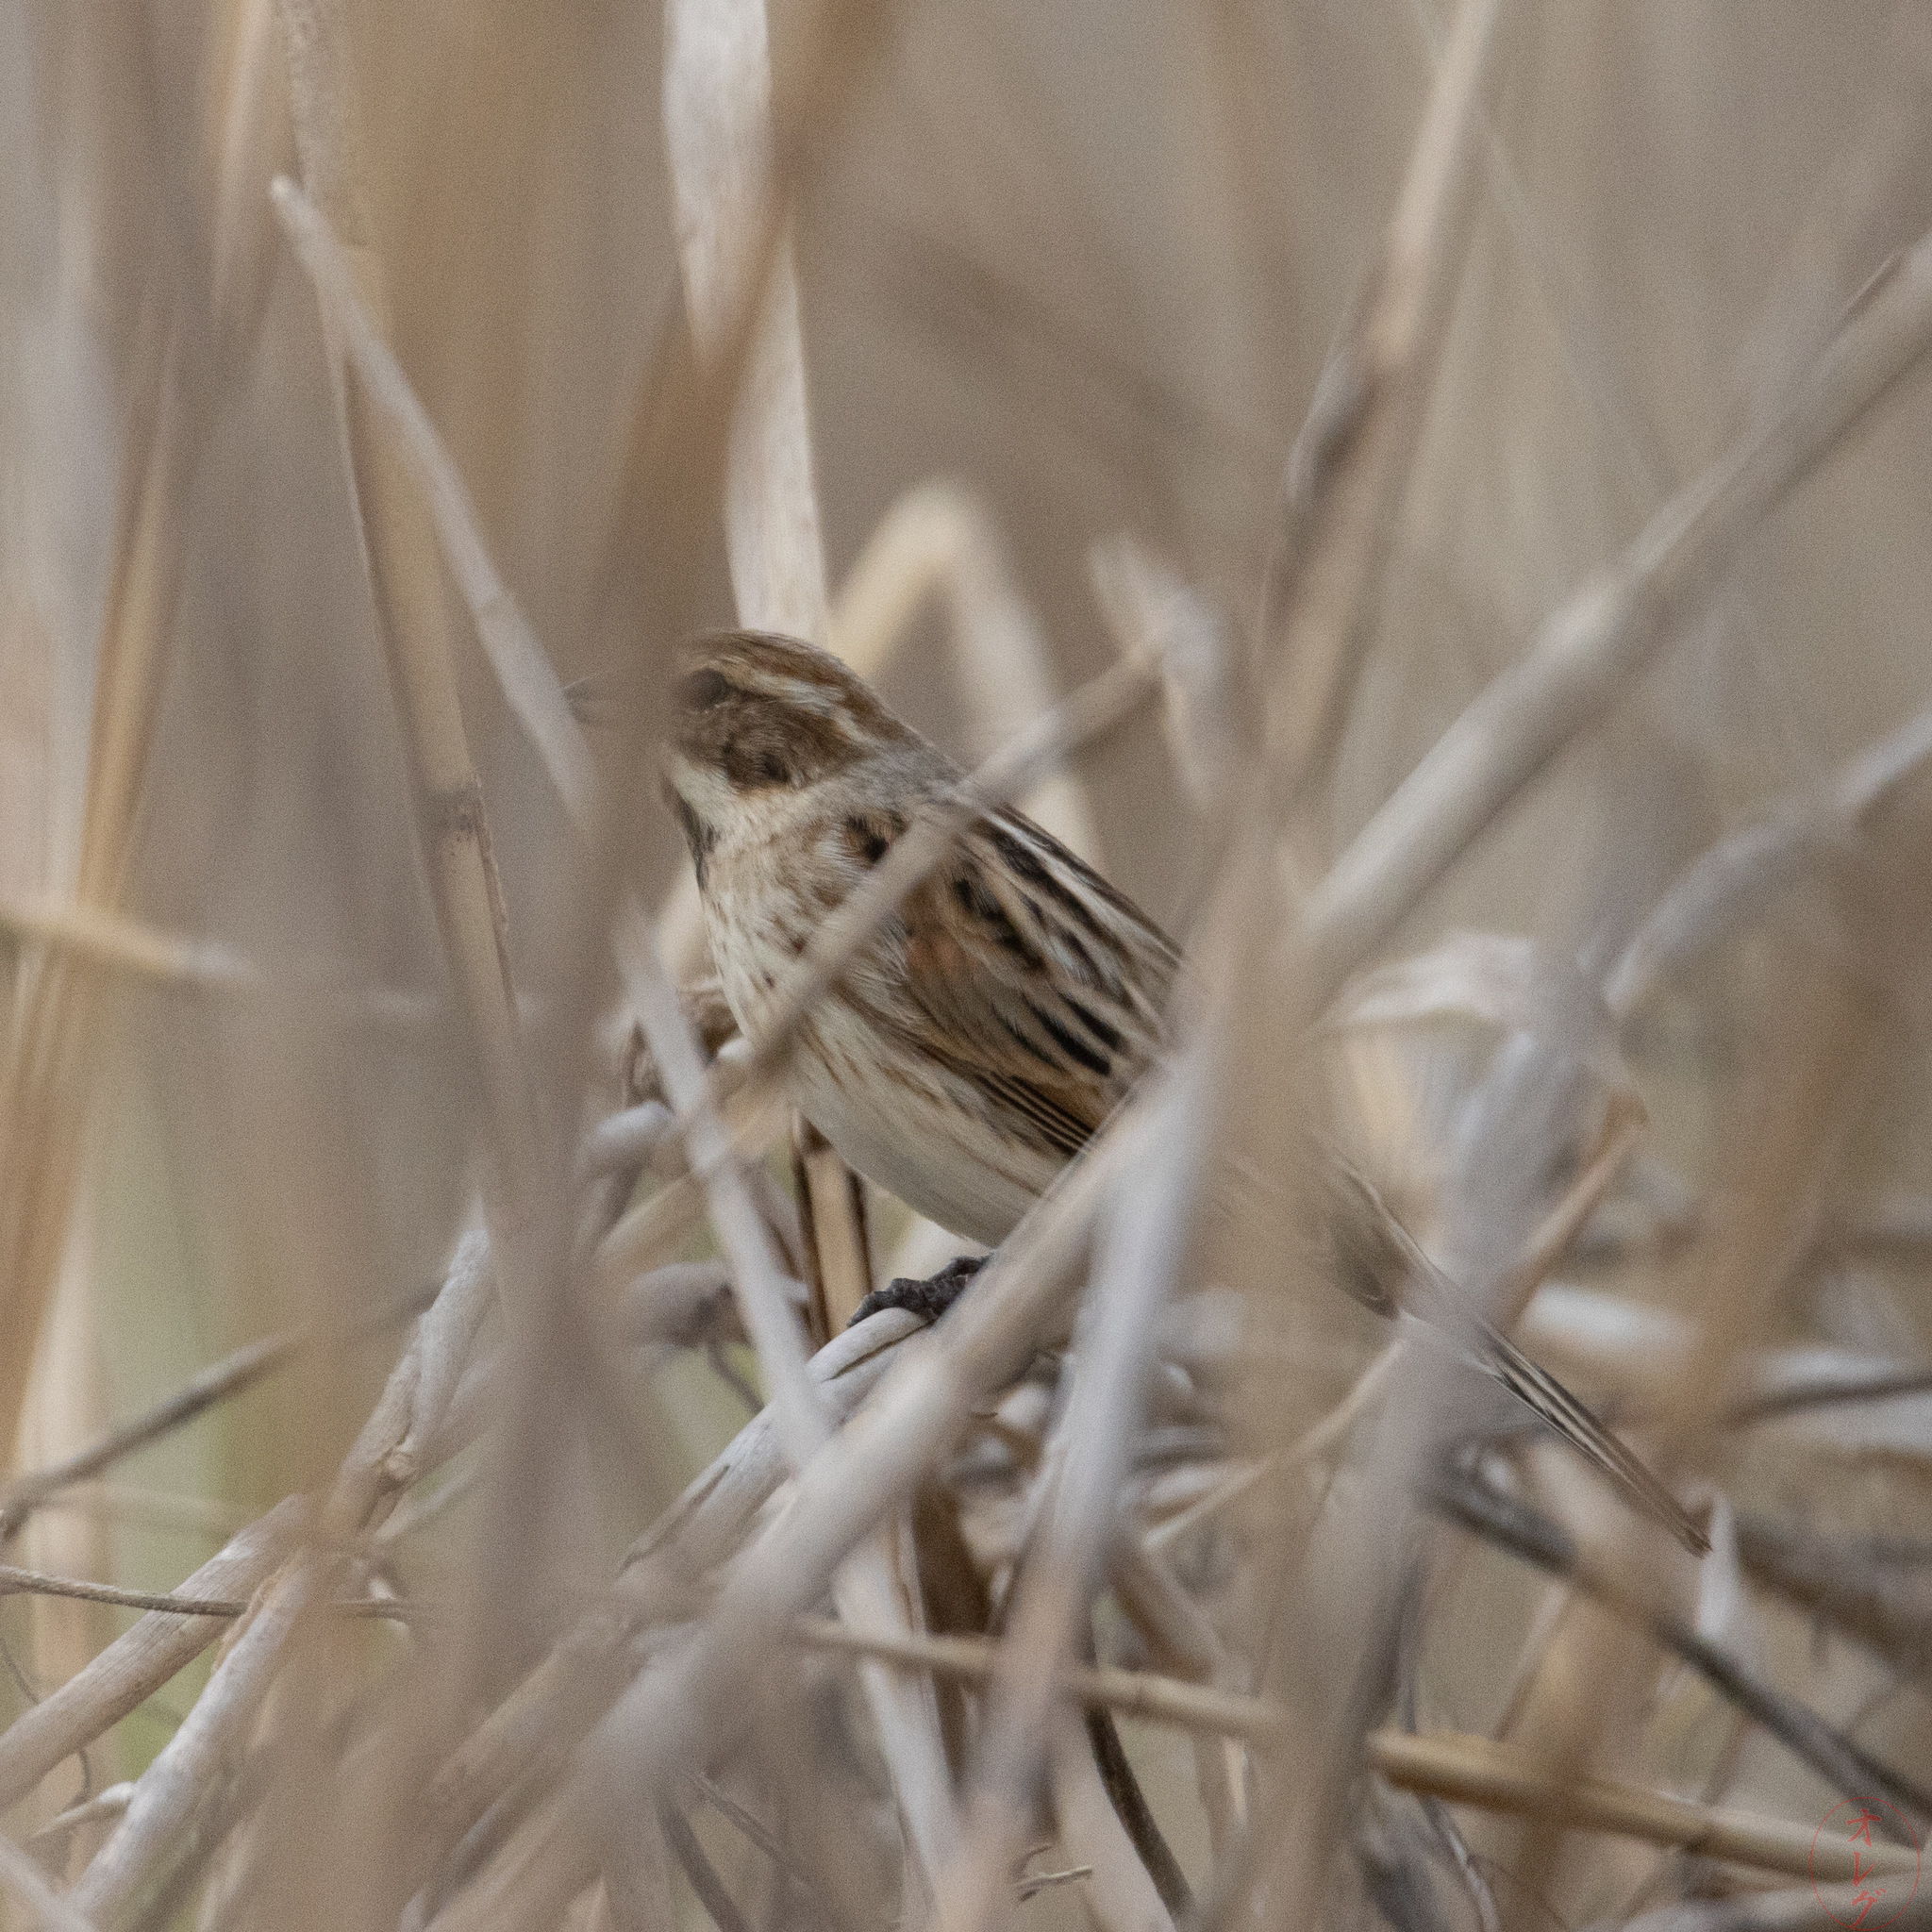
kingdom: Animalia
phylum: Chordata
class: Aves
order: Passeriformes
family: Emberizidae
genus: Emberiza
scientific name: Emberiza schoeniclus
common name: Reed bunting
